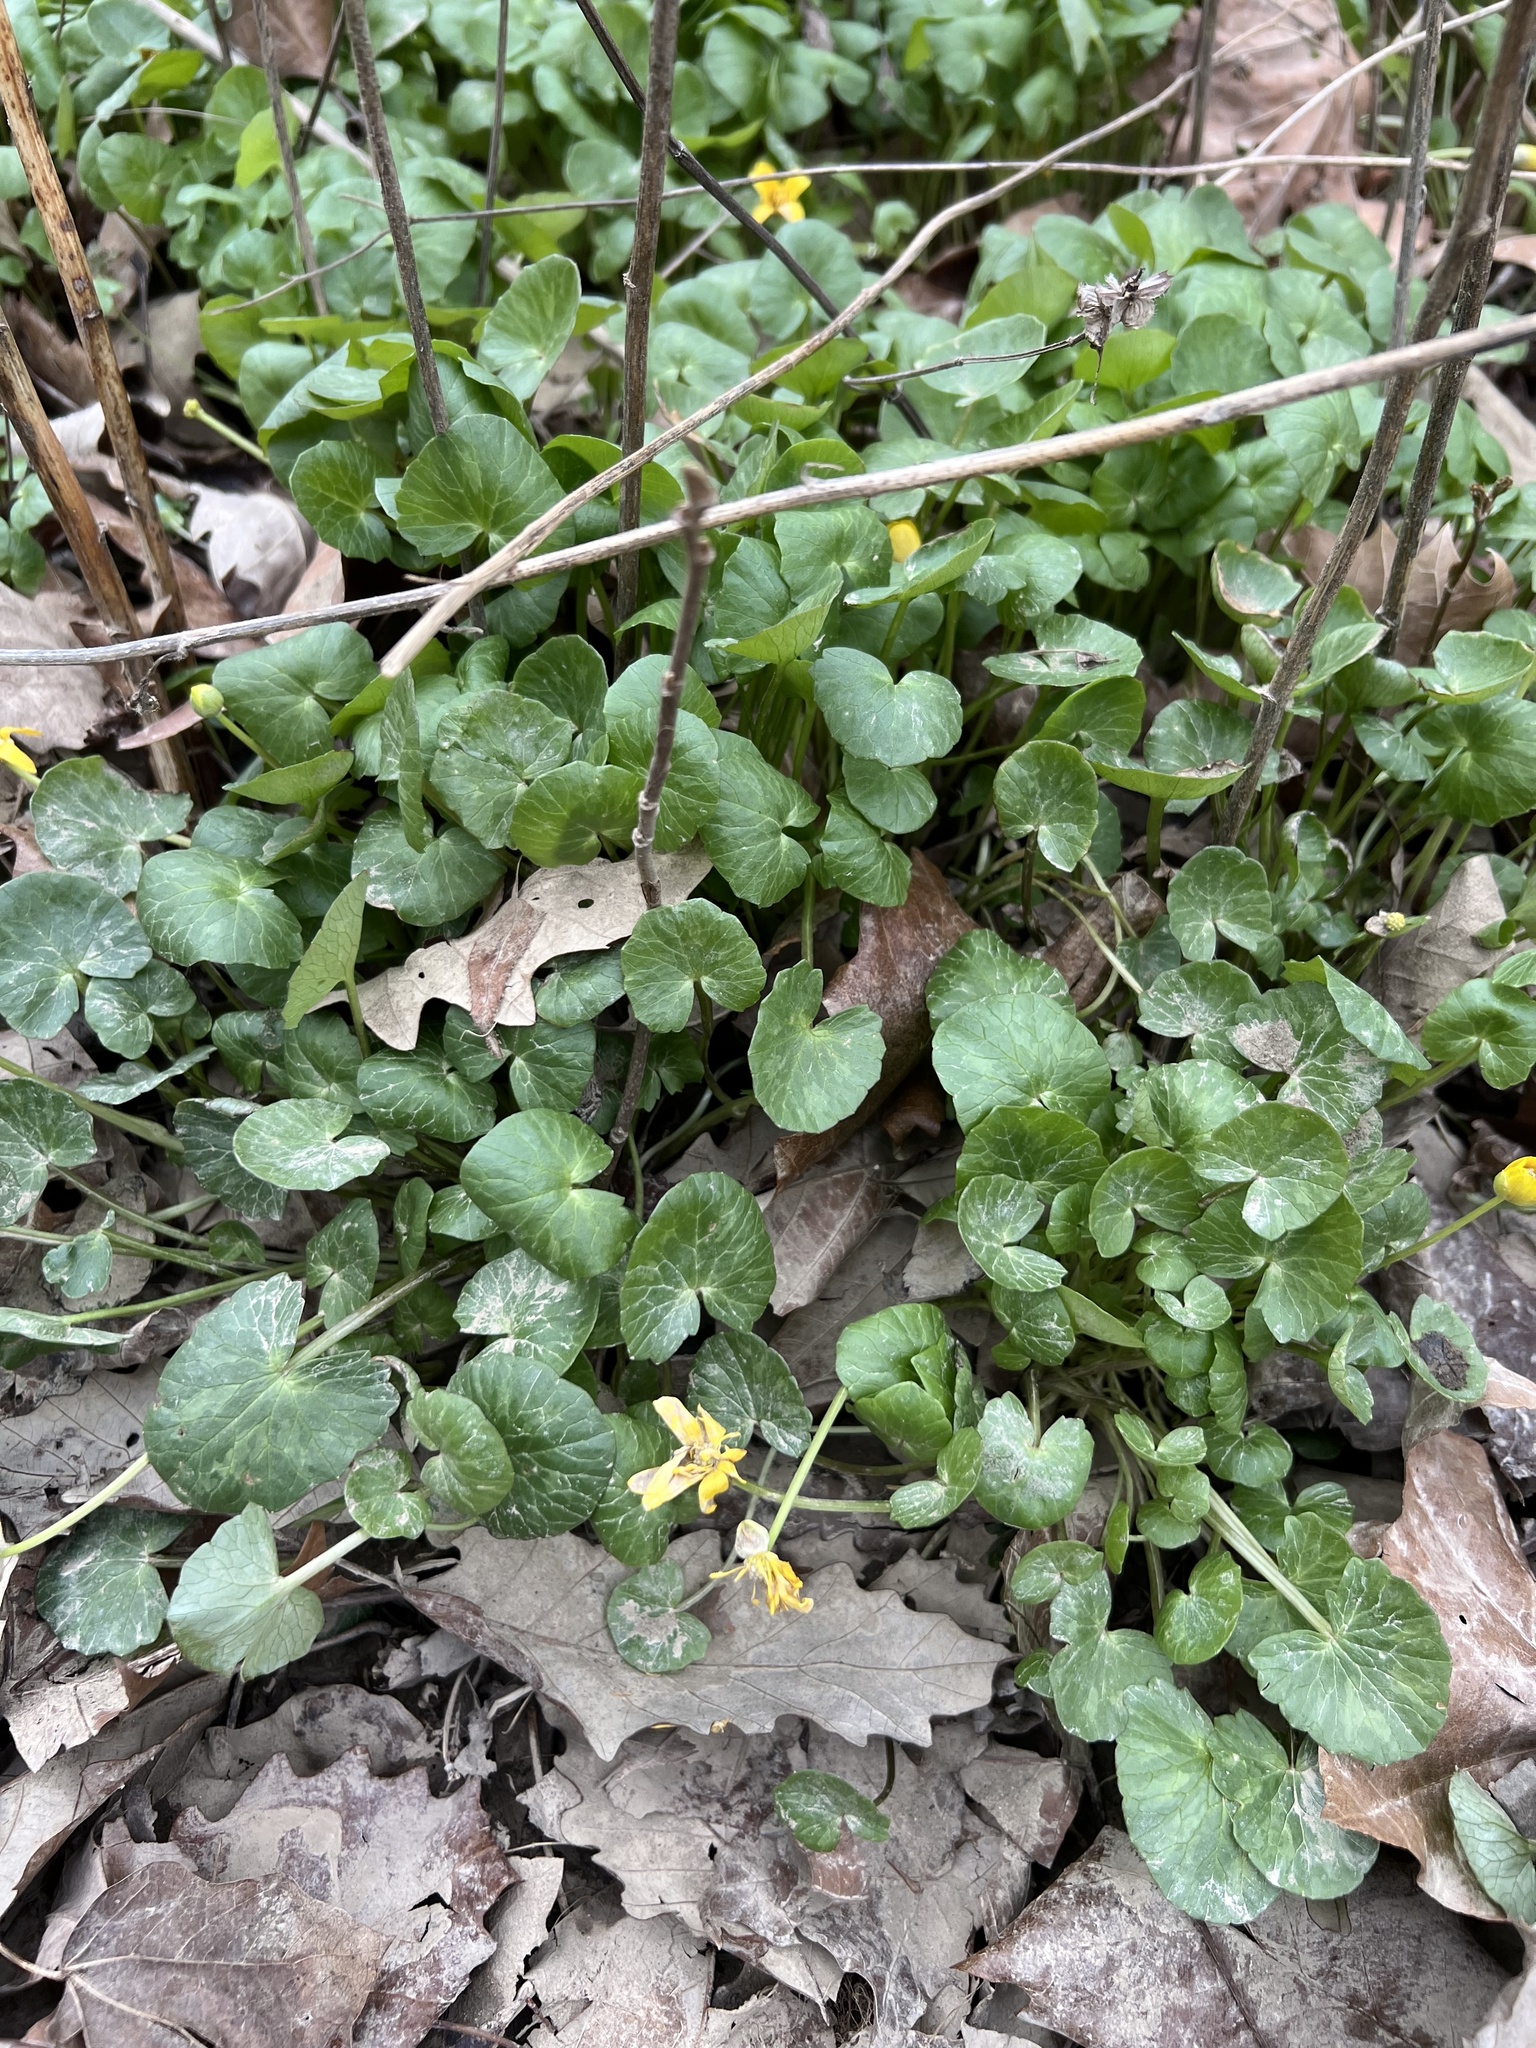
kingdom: Plantae
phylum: Tracheophyta
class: Magnoliopsida
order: Ranunculales
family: Ranunculaceae
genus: Ficaria
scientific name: Ficaria verna
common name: Lesser celandine
